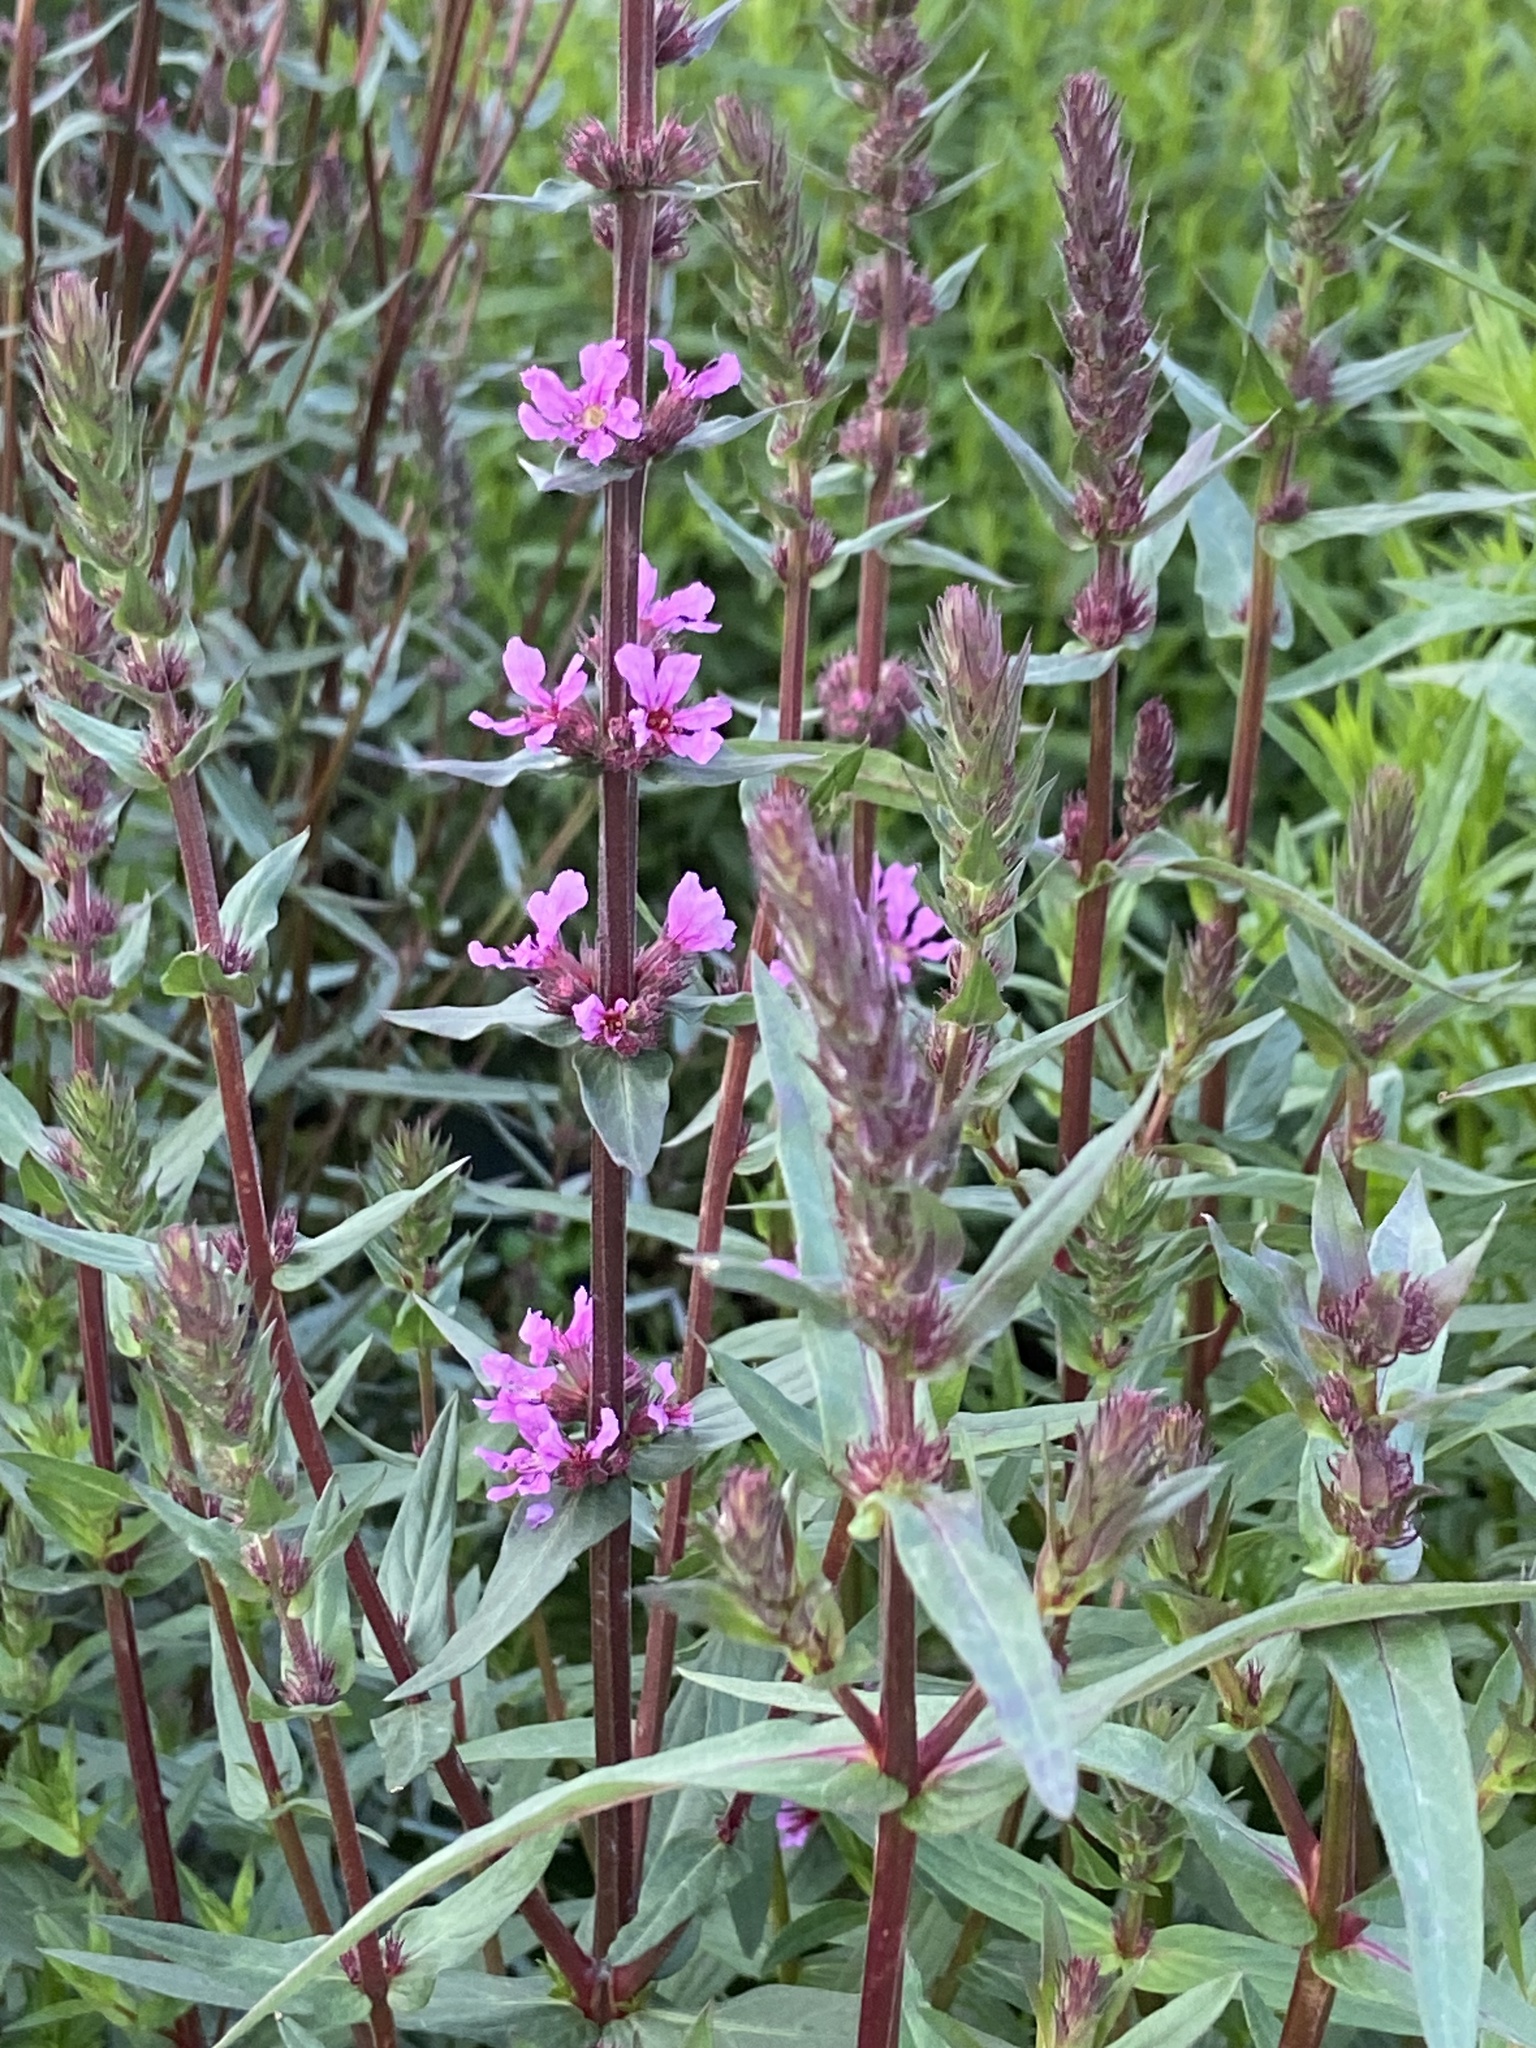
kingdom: Plantae
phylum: Tracheophyta
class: Magnoliopsida
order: Myrtales
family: Lythraceae
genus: Lythrum
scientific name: Lythrum salicaria
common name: Purple loosestrife
